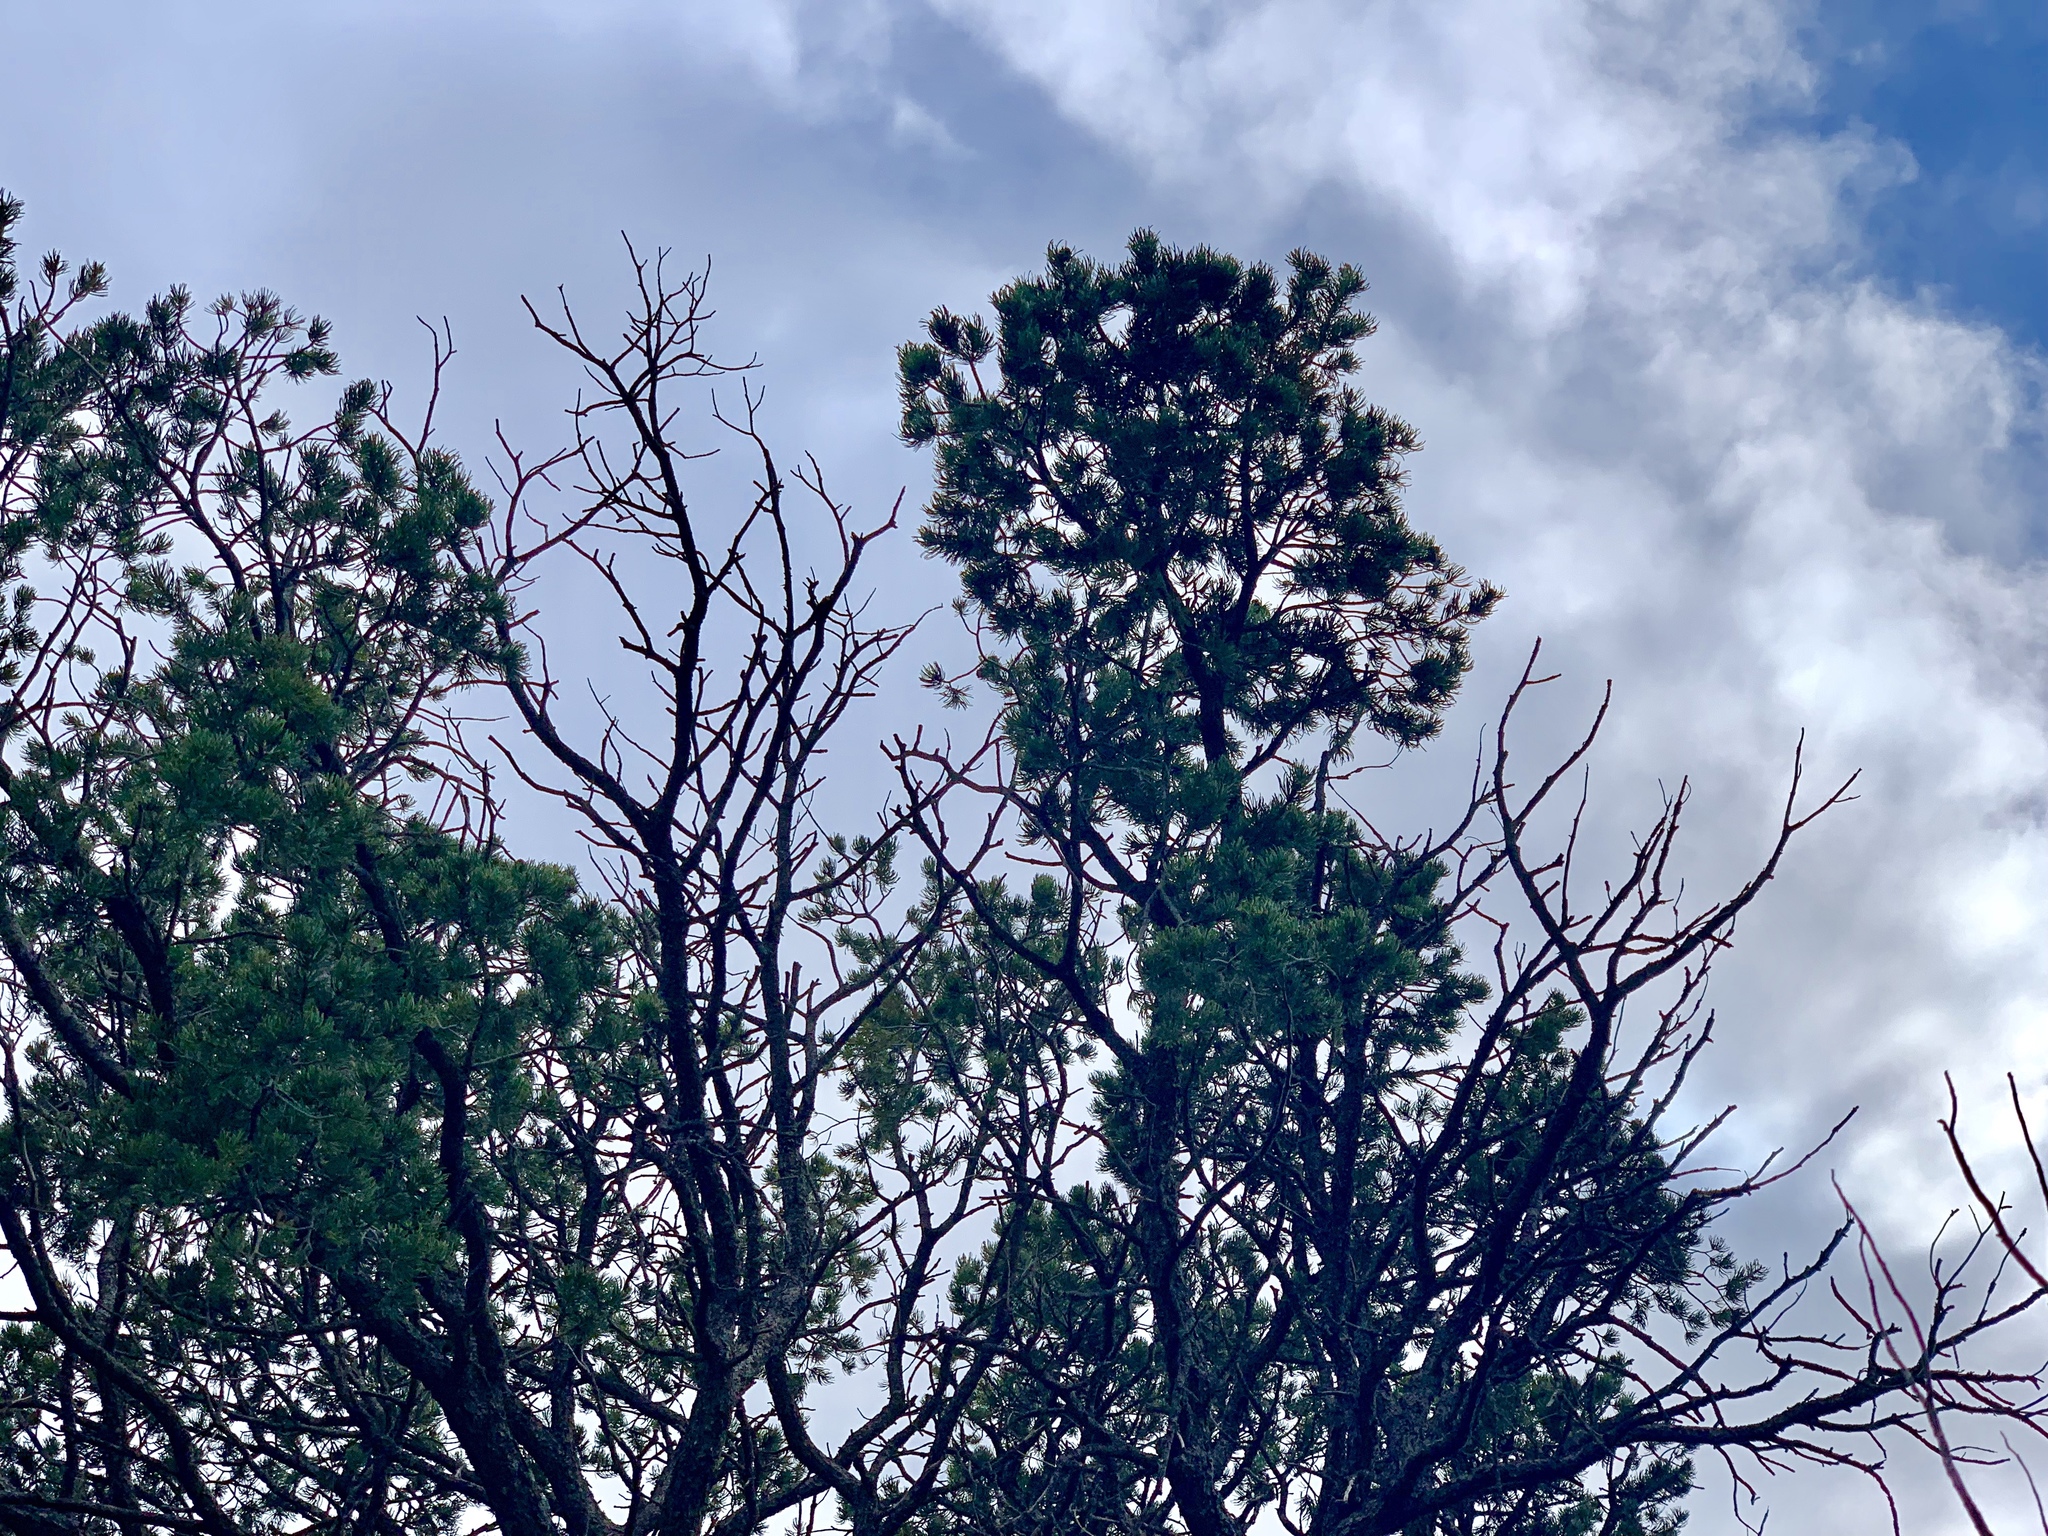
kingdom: Plantae
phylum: Tracheophyta
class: Pinopsida
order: Pinales
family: Pinaceae
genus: Pinus
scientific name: Pinus edulis
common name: Colorado pinyon
